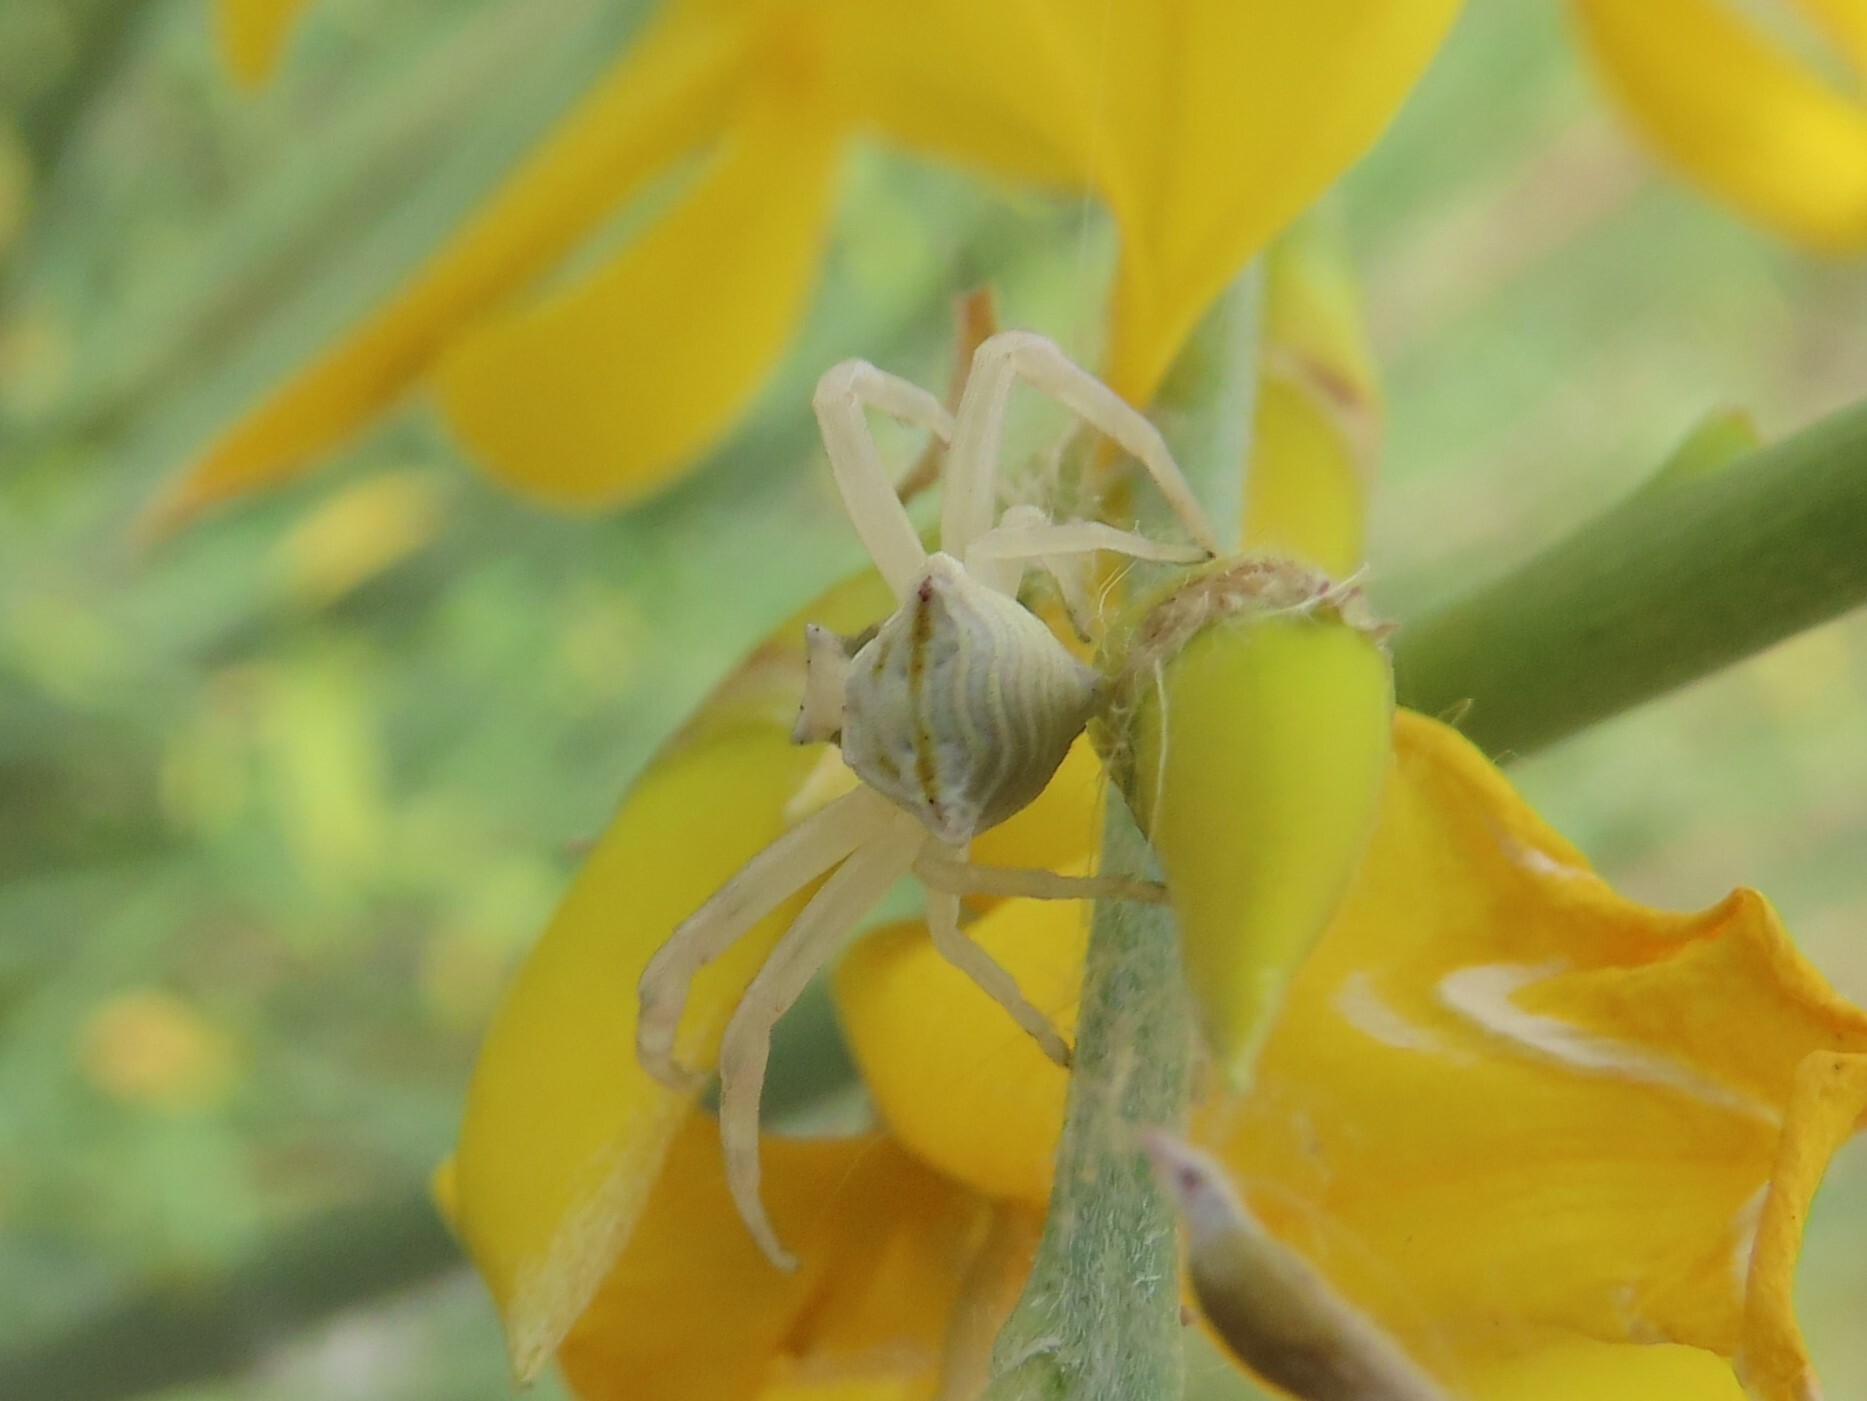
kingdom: Animalia
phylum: Arthropoda
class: Arachnida
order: Araneae
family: Thomisidae
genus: Thomisus
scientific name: Thomisus onustus
